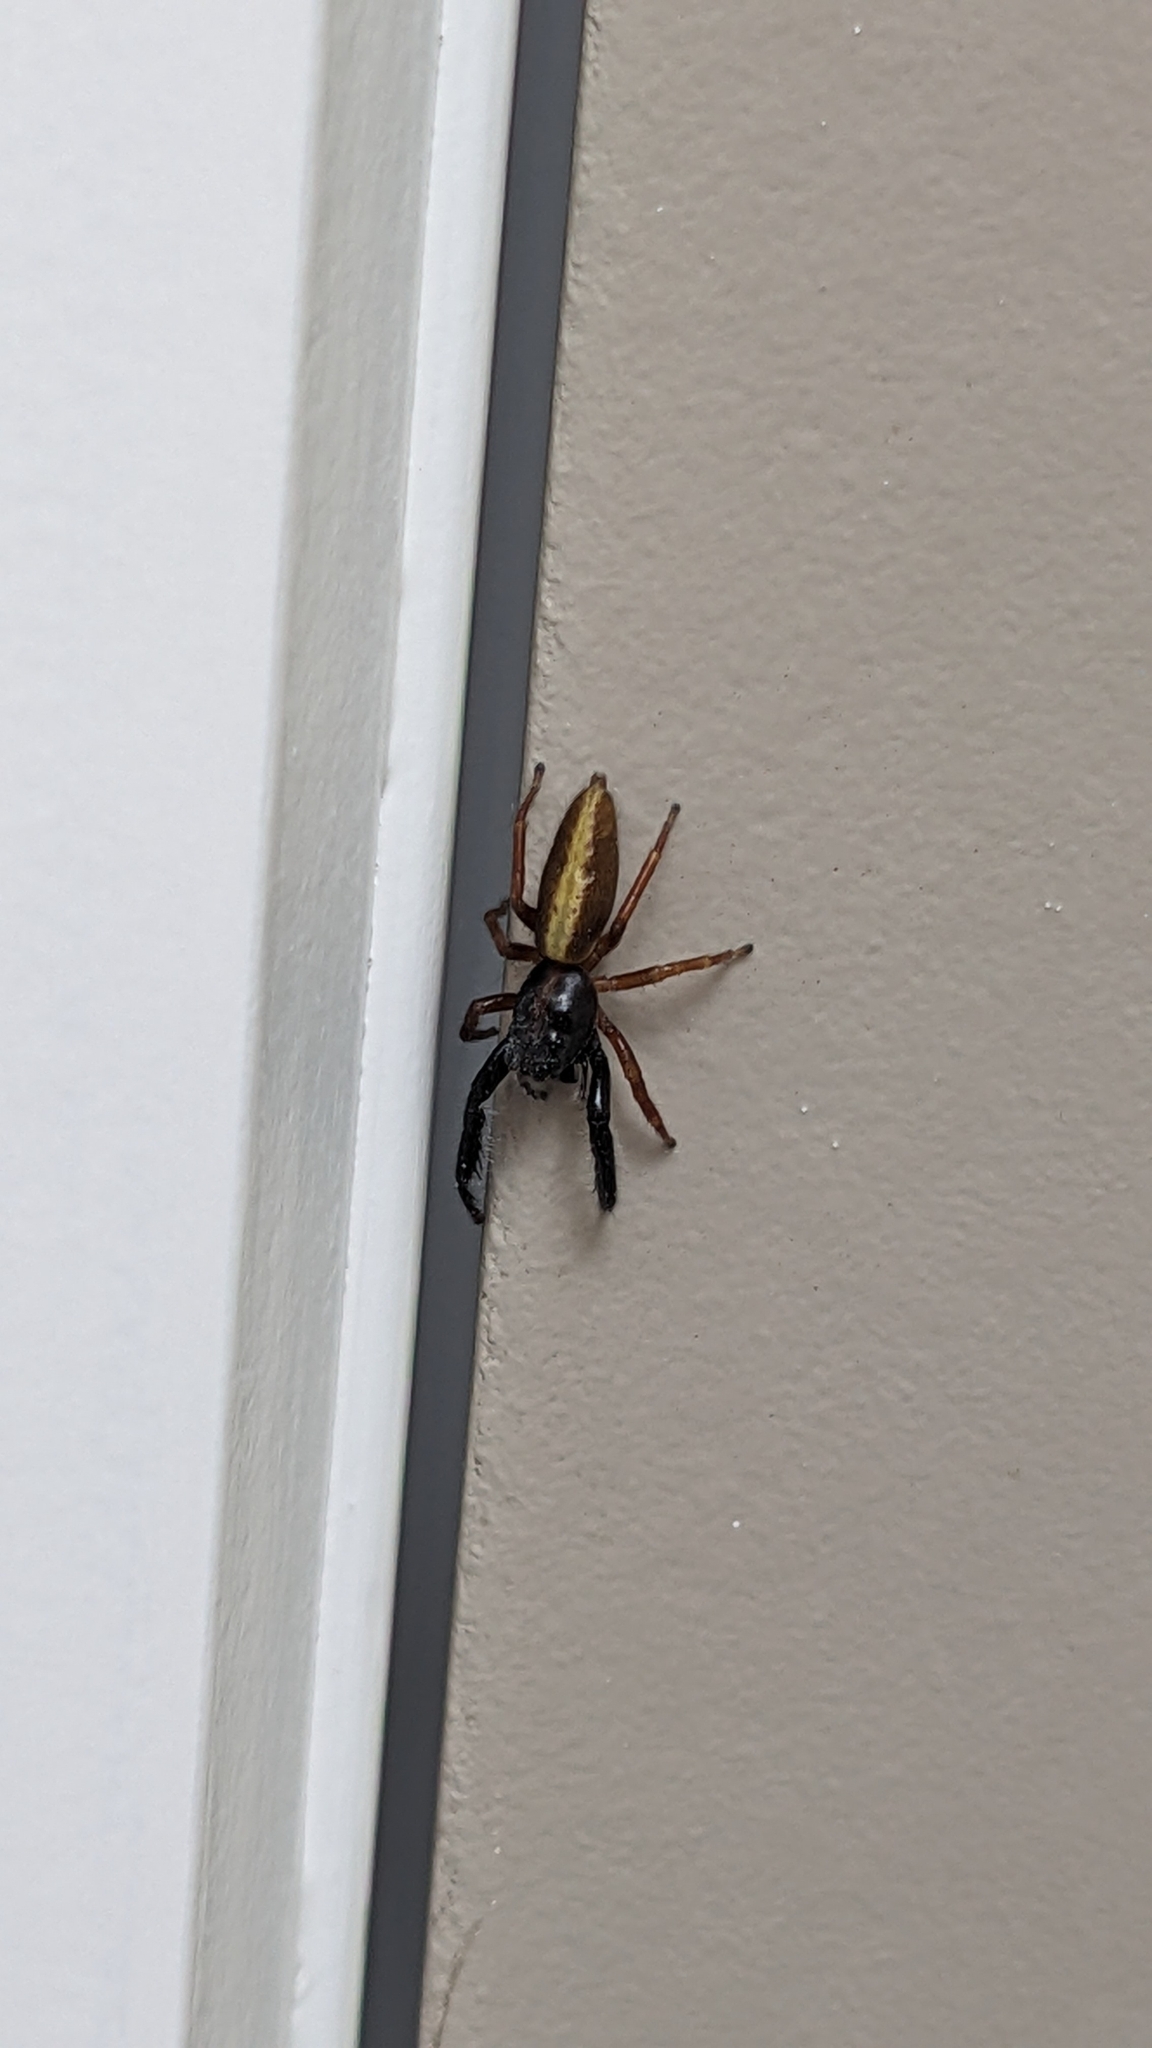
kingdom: Animalia
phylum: Arthropoda
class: Arachnida
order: Araneae
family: Salticidae
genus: Trite
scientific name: Trite planiceps
